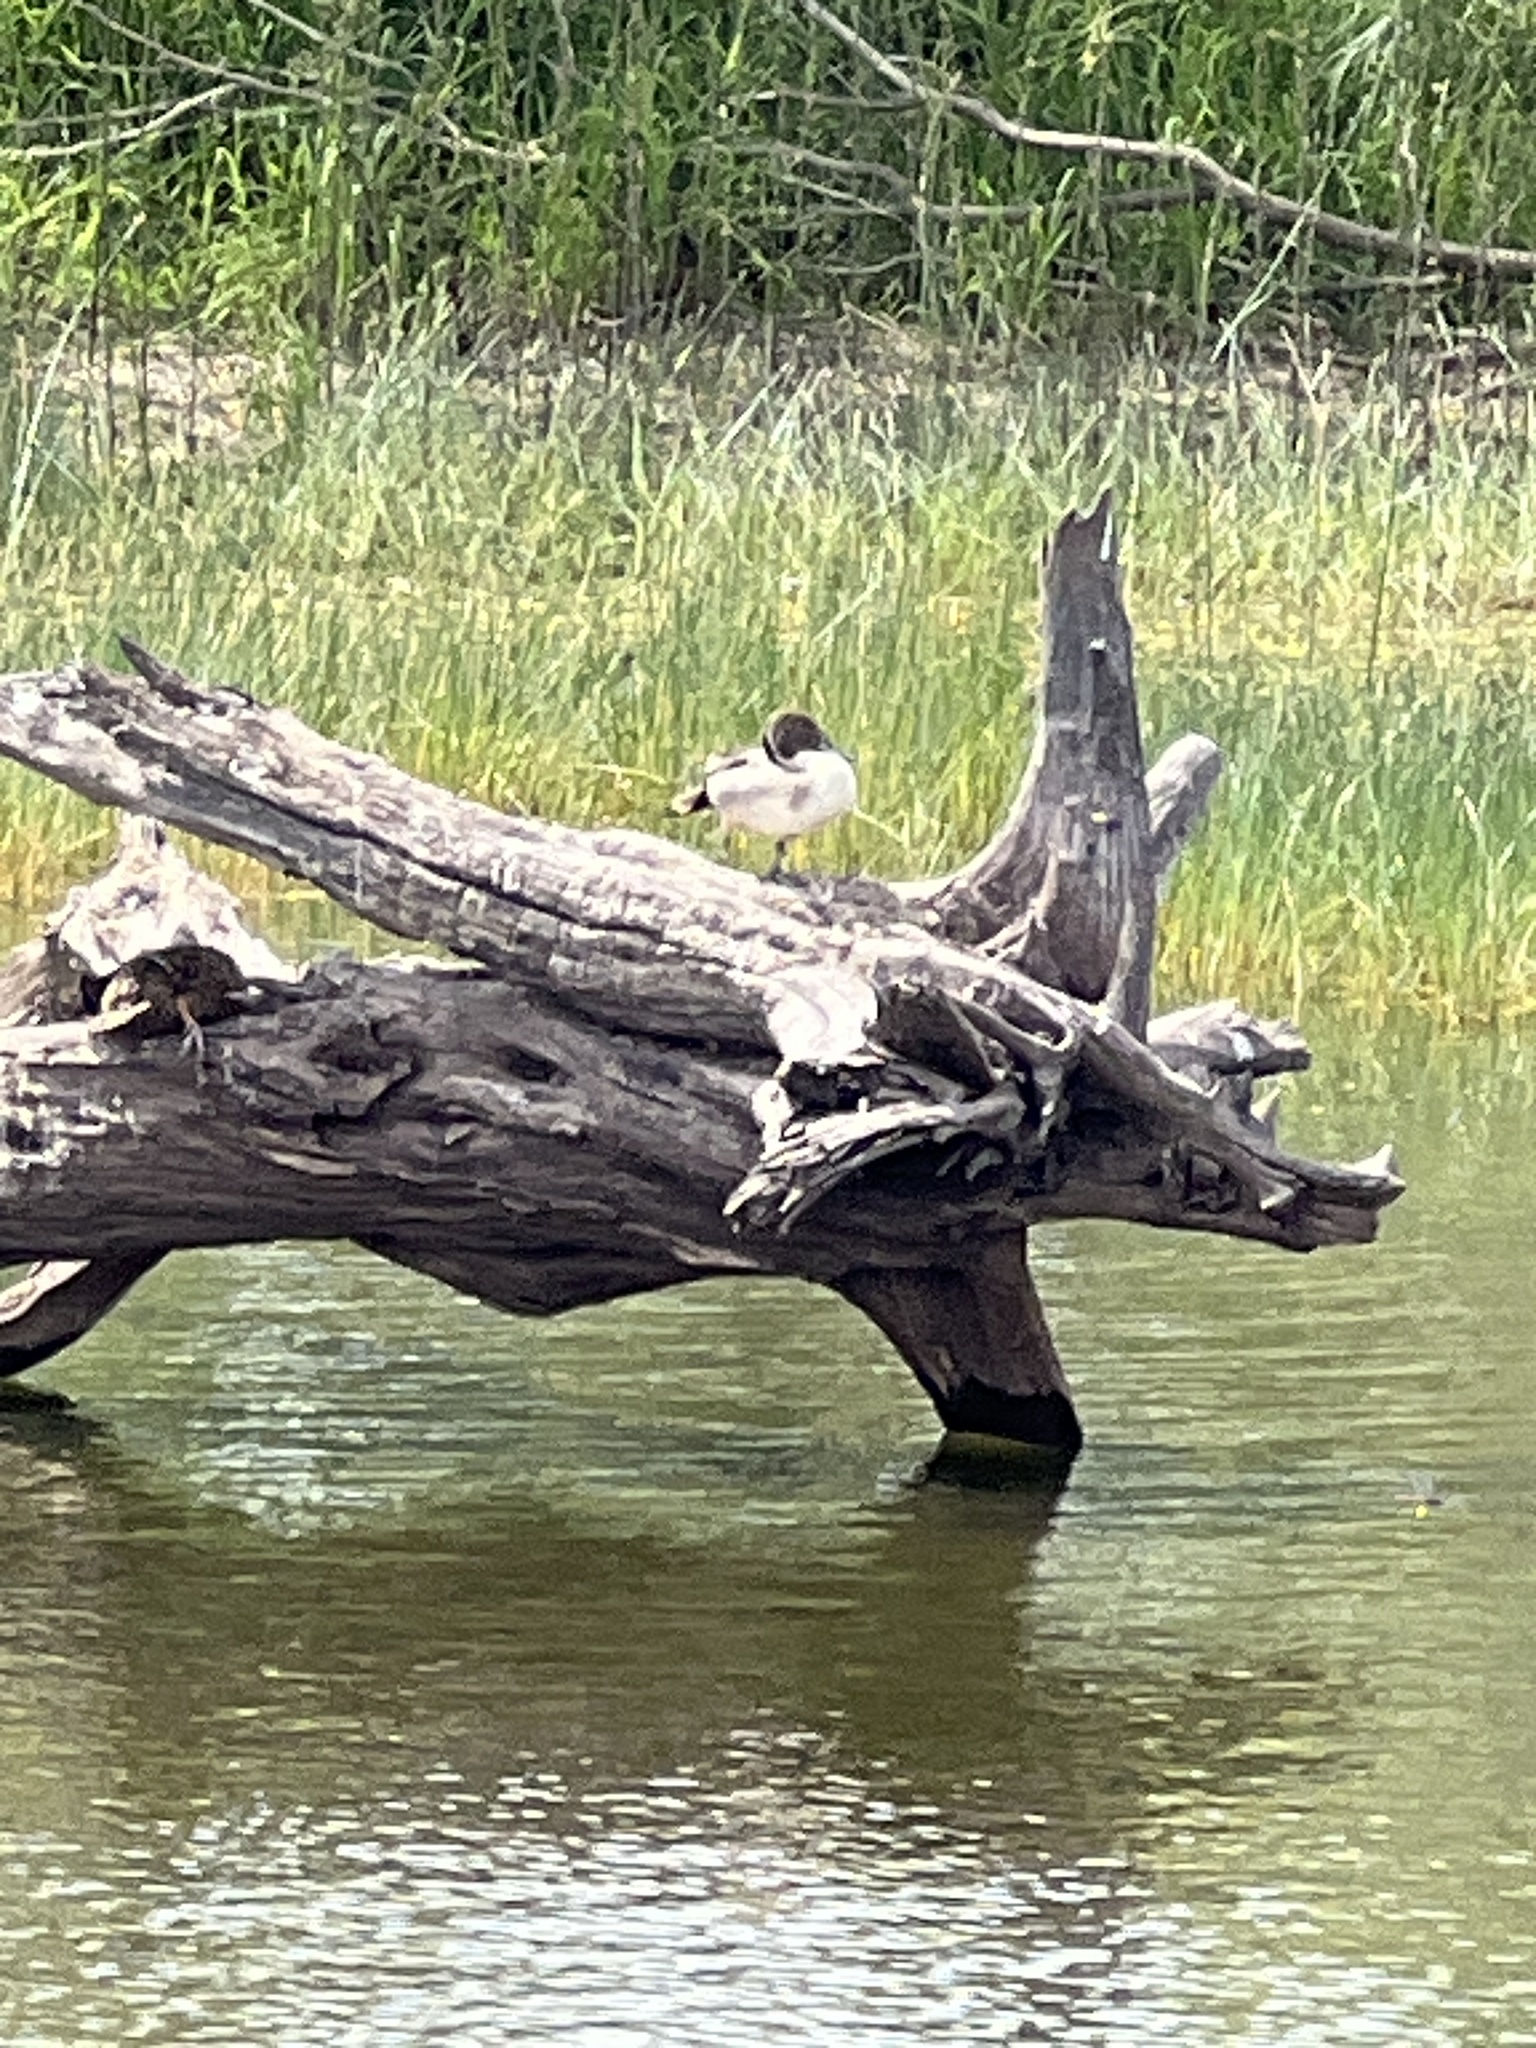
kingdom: Animalia
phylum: Chordata
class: Aves
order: Anseriformes
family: Anatidae
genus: Anas
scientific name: Anas acuta
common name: Northern pintail
